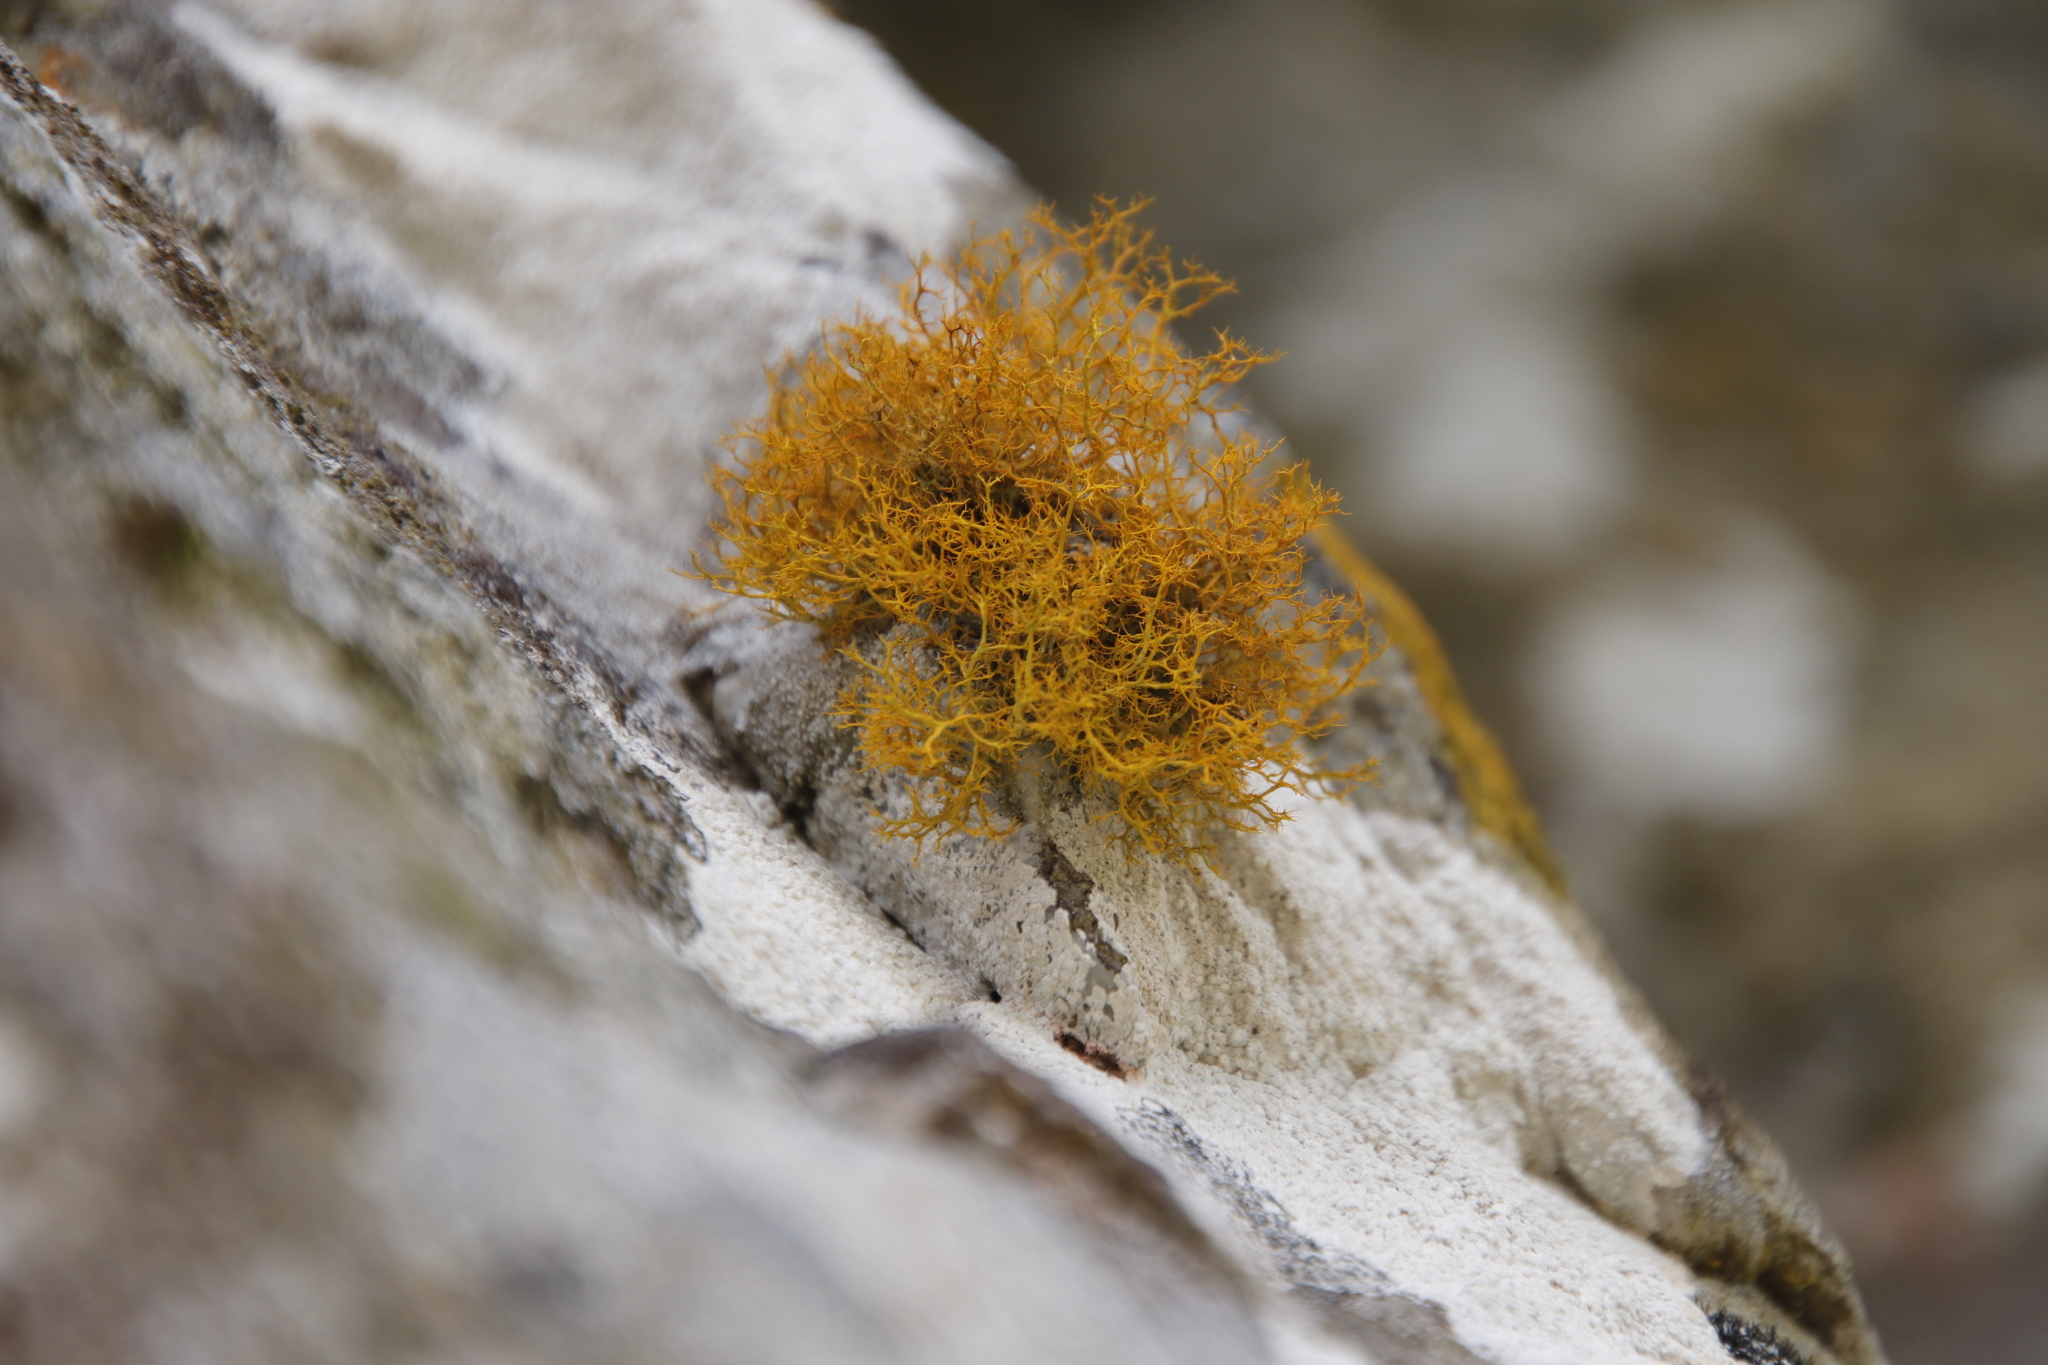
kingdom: Fungi
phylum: Ascomycota
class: Lecanoromycetes
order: Teloschistales
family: Teloschistaceae
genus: Teloschistes
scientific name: Teloschistes flavicans
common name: Golden hair-lichen
